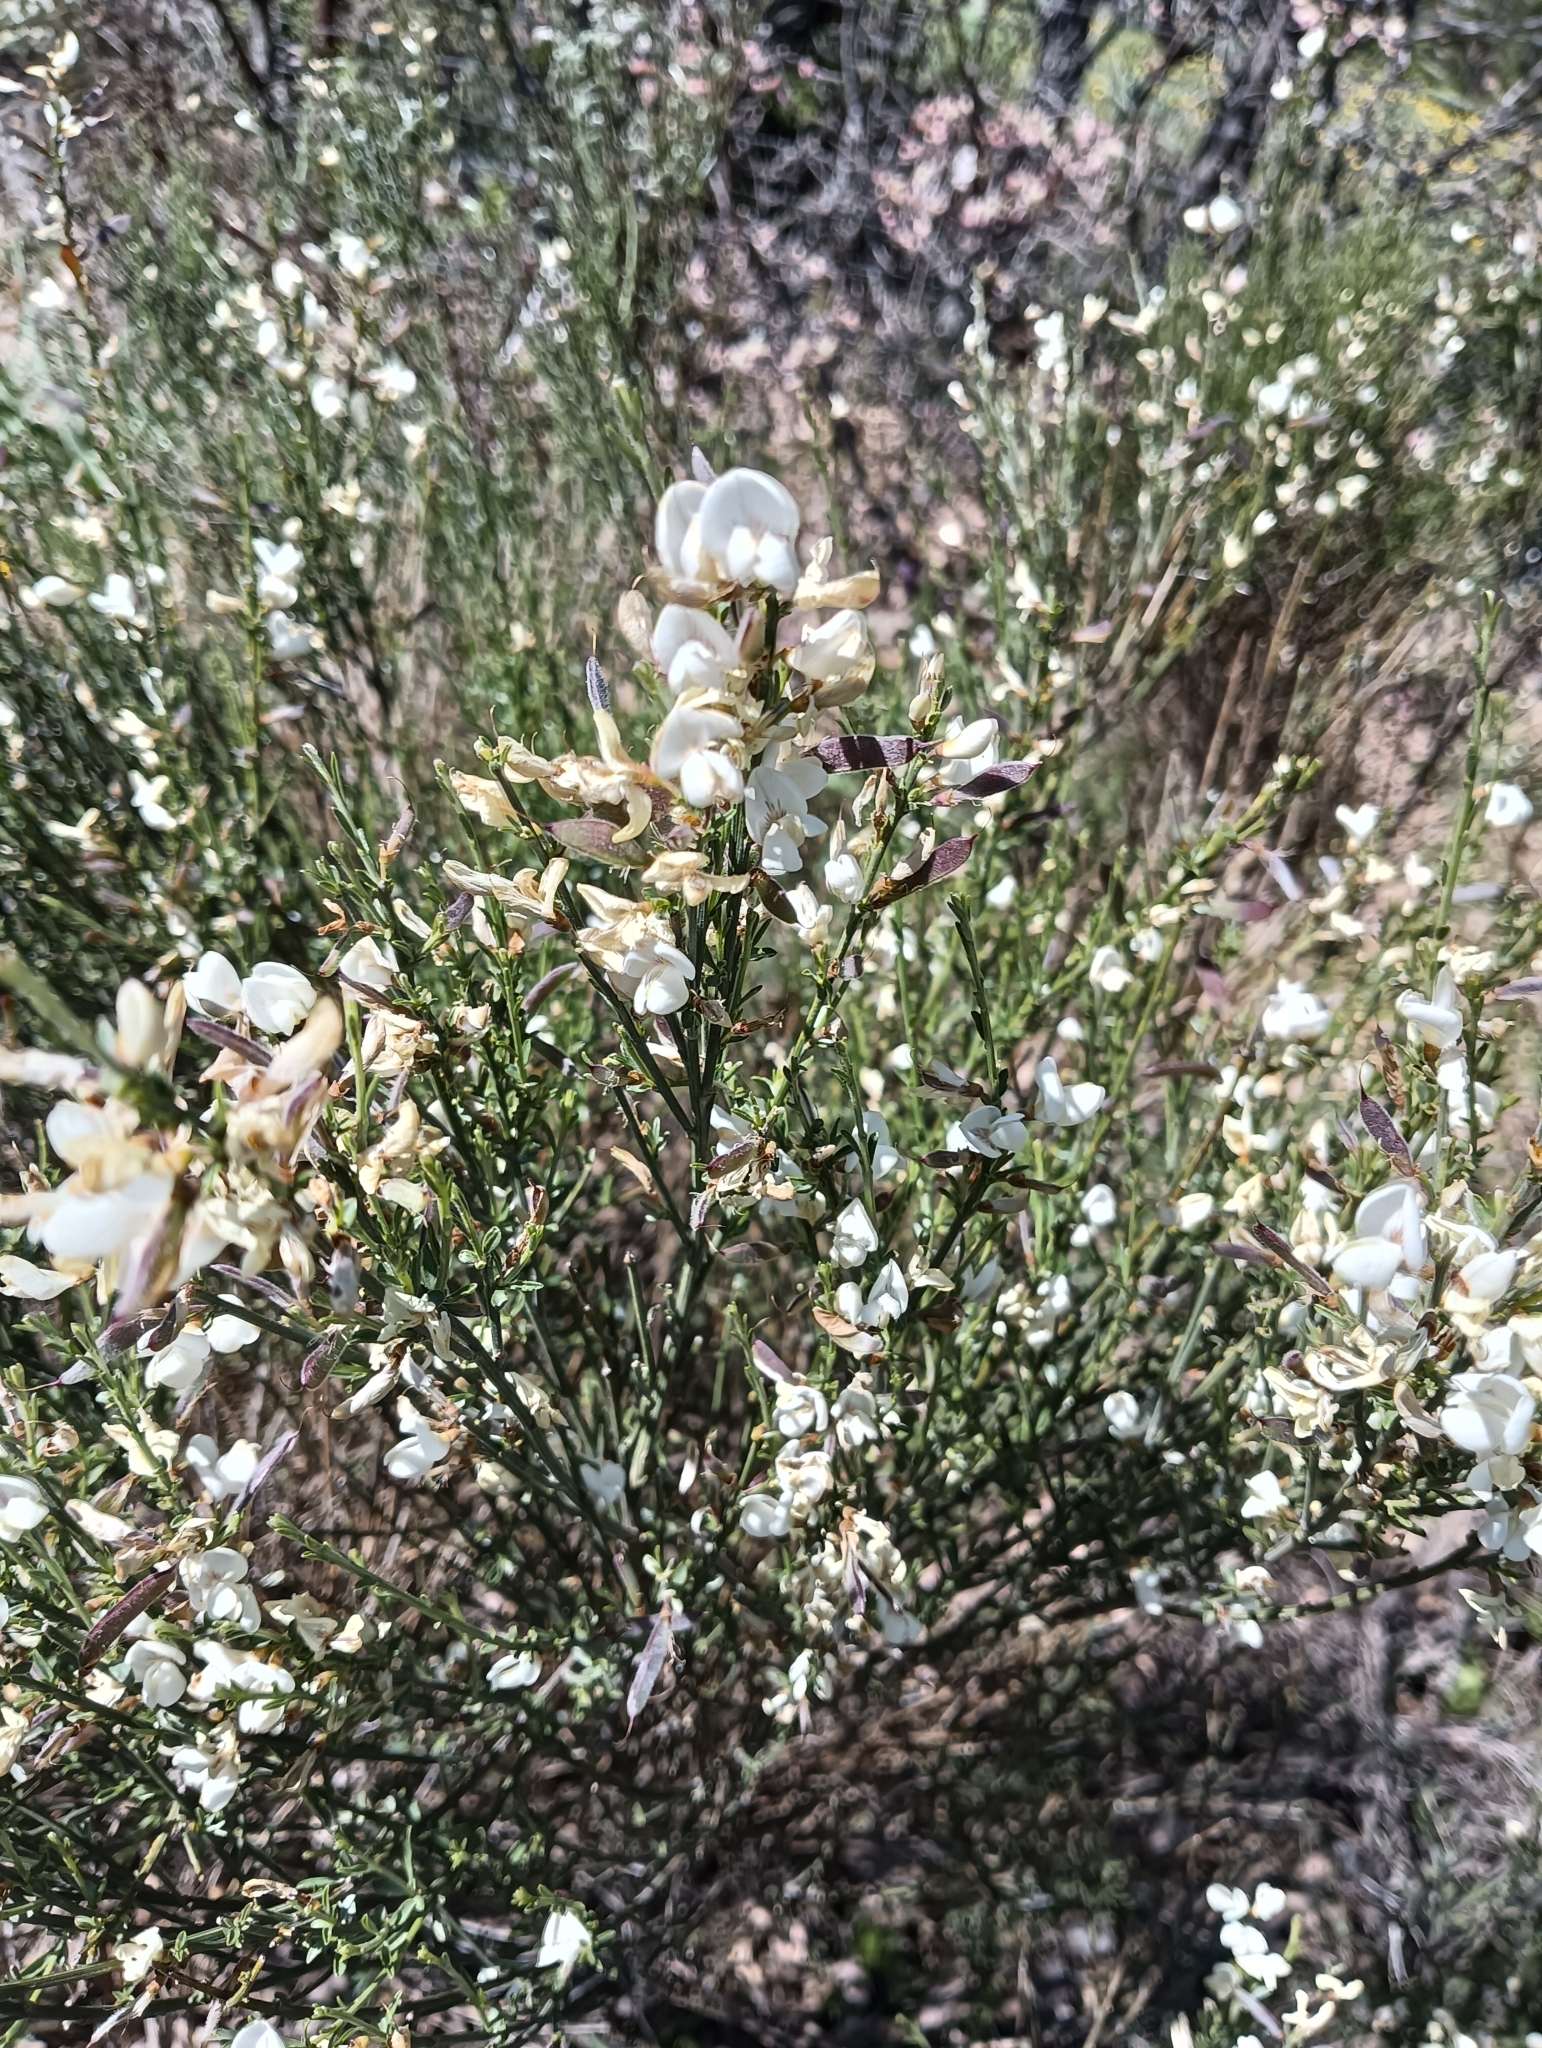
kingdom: Plantae
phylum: Tracheophyta
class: Magnoliopsida
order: Fabales
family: Fabaceae
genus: Cytisus
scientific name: Cytisus multiflorus
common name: White broom
